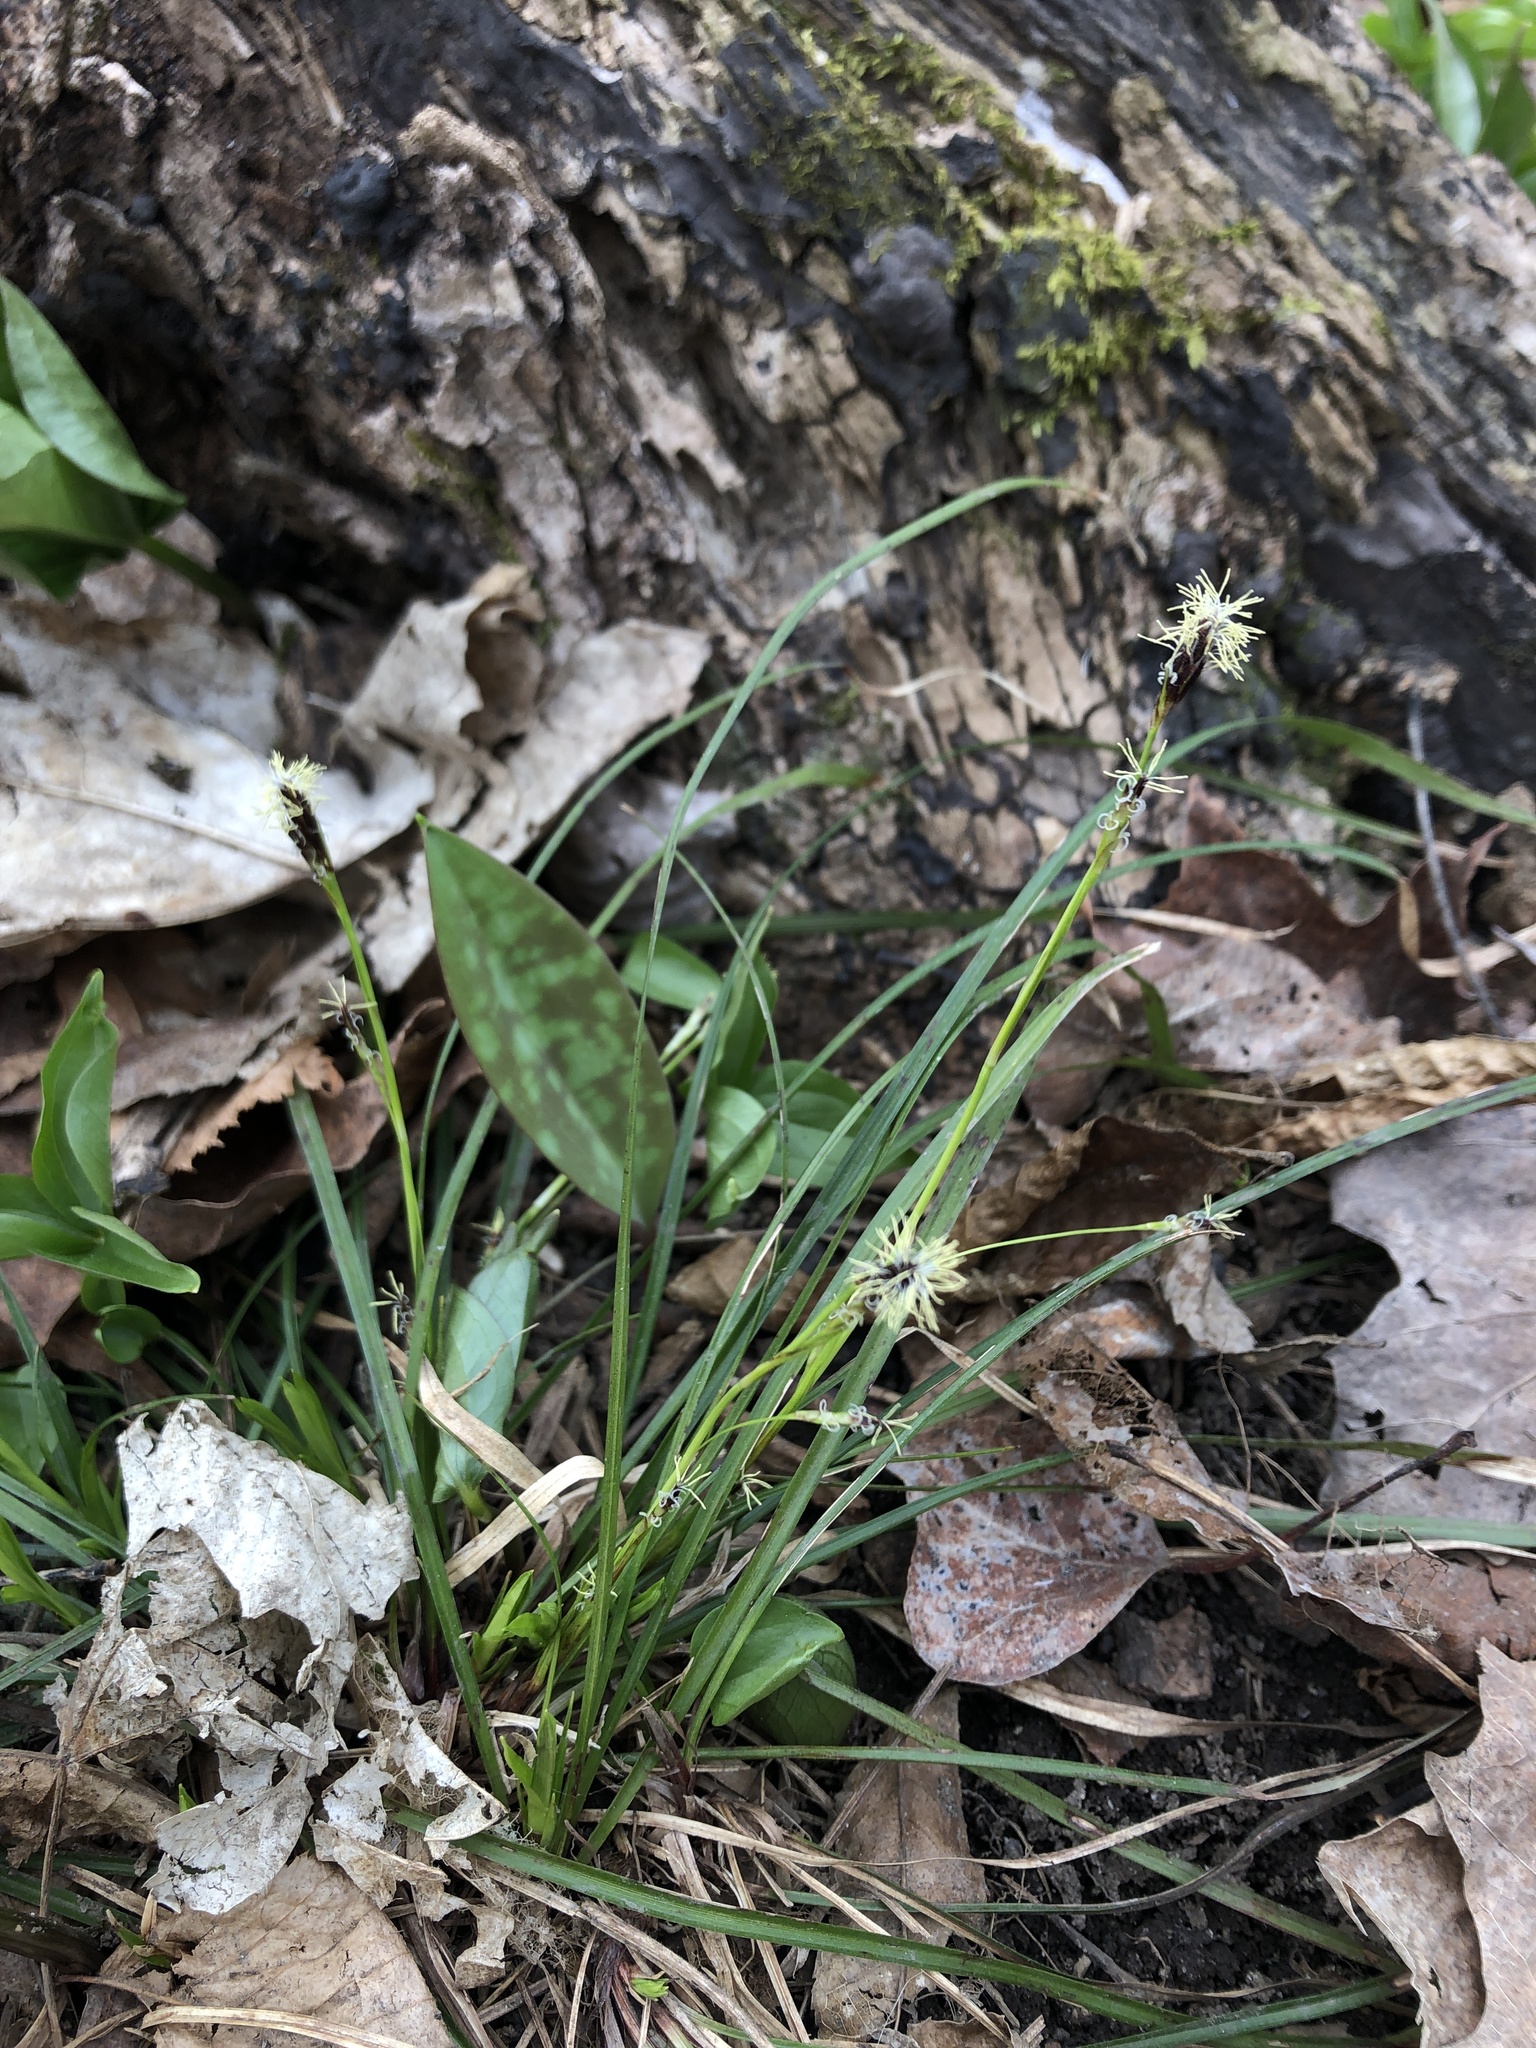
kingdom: Plantae
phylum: Tracheophyta
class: Liliopsida
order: Poales
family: Cyperaceae
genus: Carex
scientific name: Carex pedunculata
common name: Pedunculate sedge
